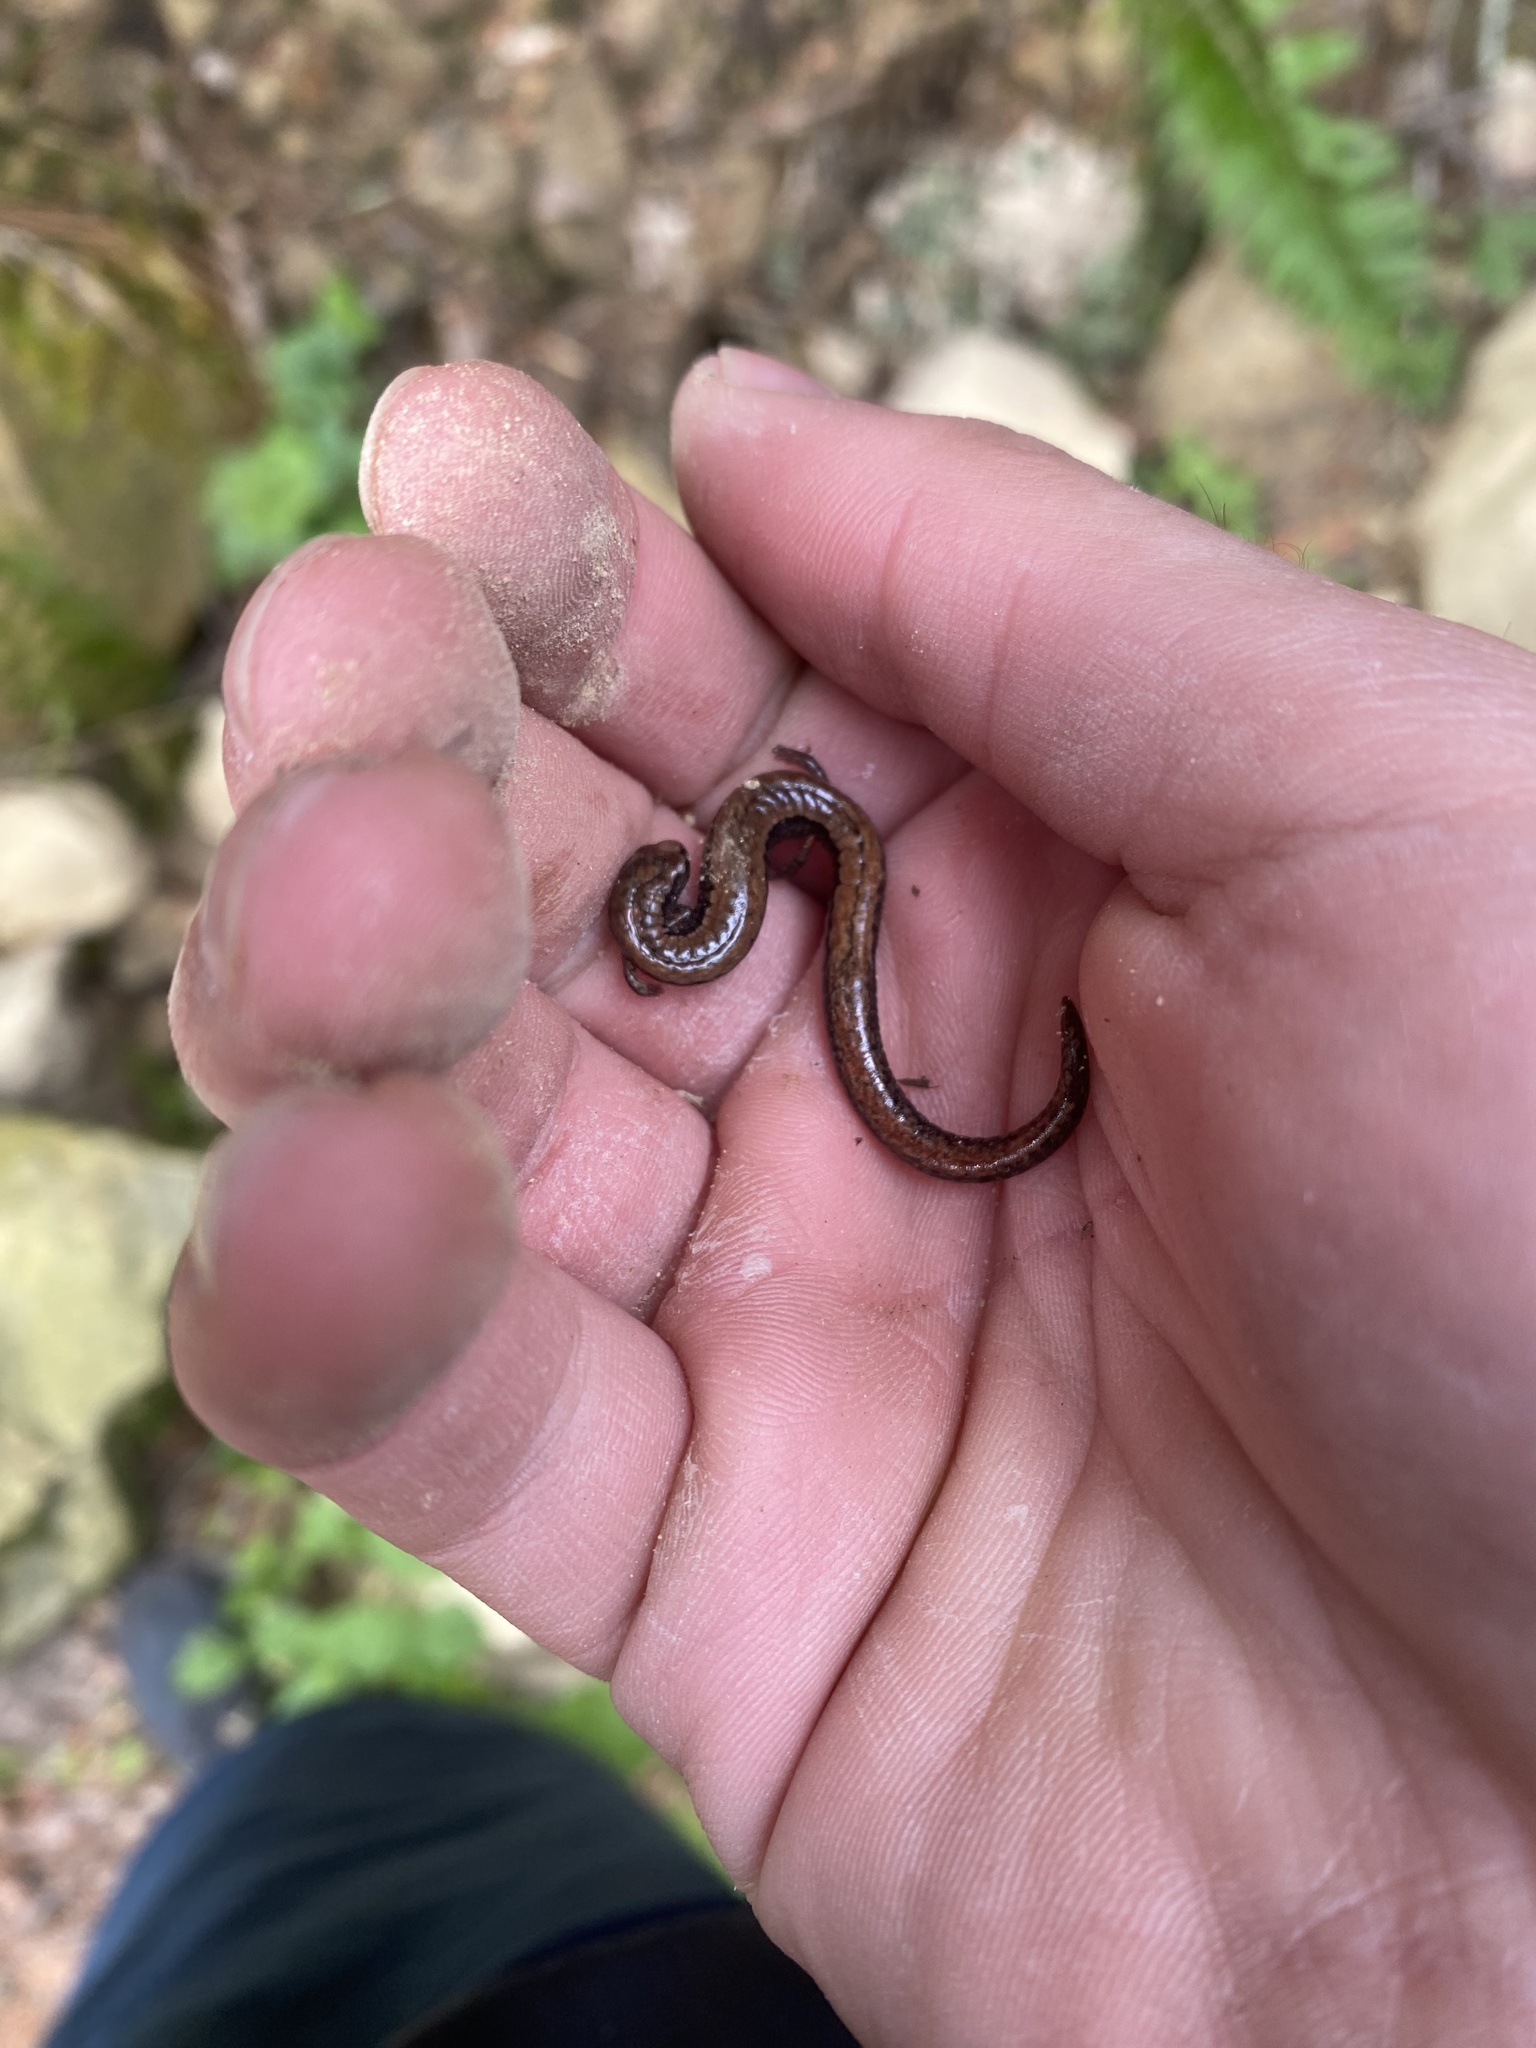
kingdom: Animalia
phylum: Chordata
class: Amphibia
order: Caudata
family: Plethodontidae
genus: Batrachoseps
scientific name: Batrachoseps attenuatus
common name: California slender salamander
